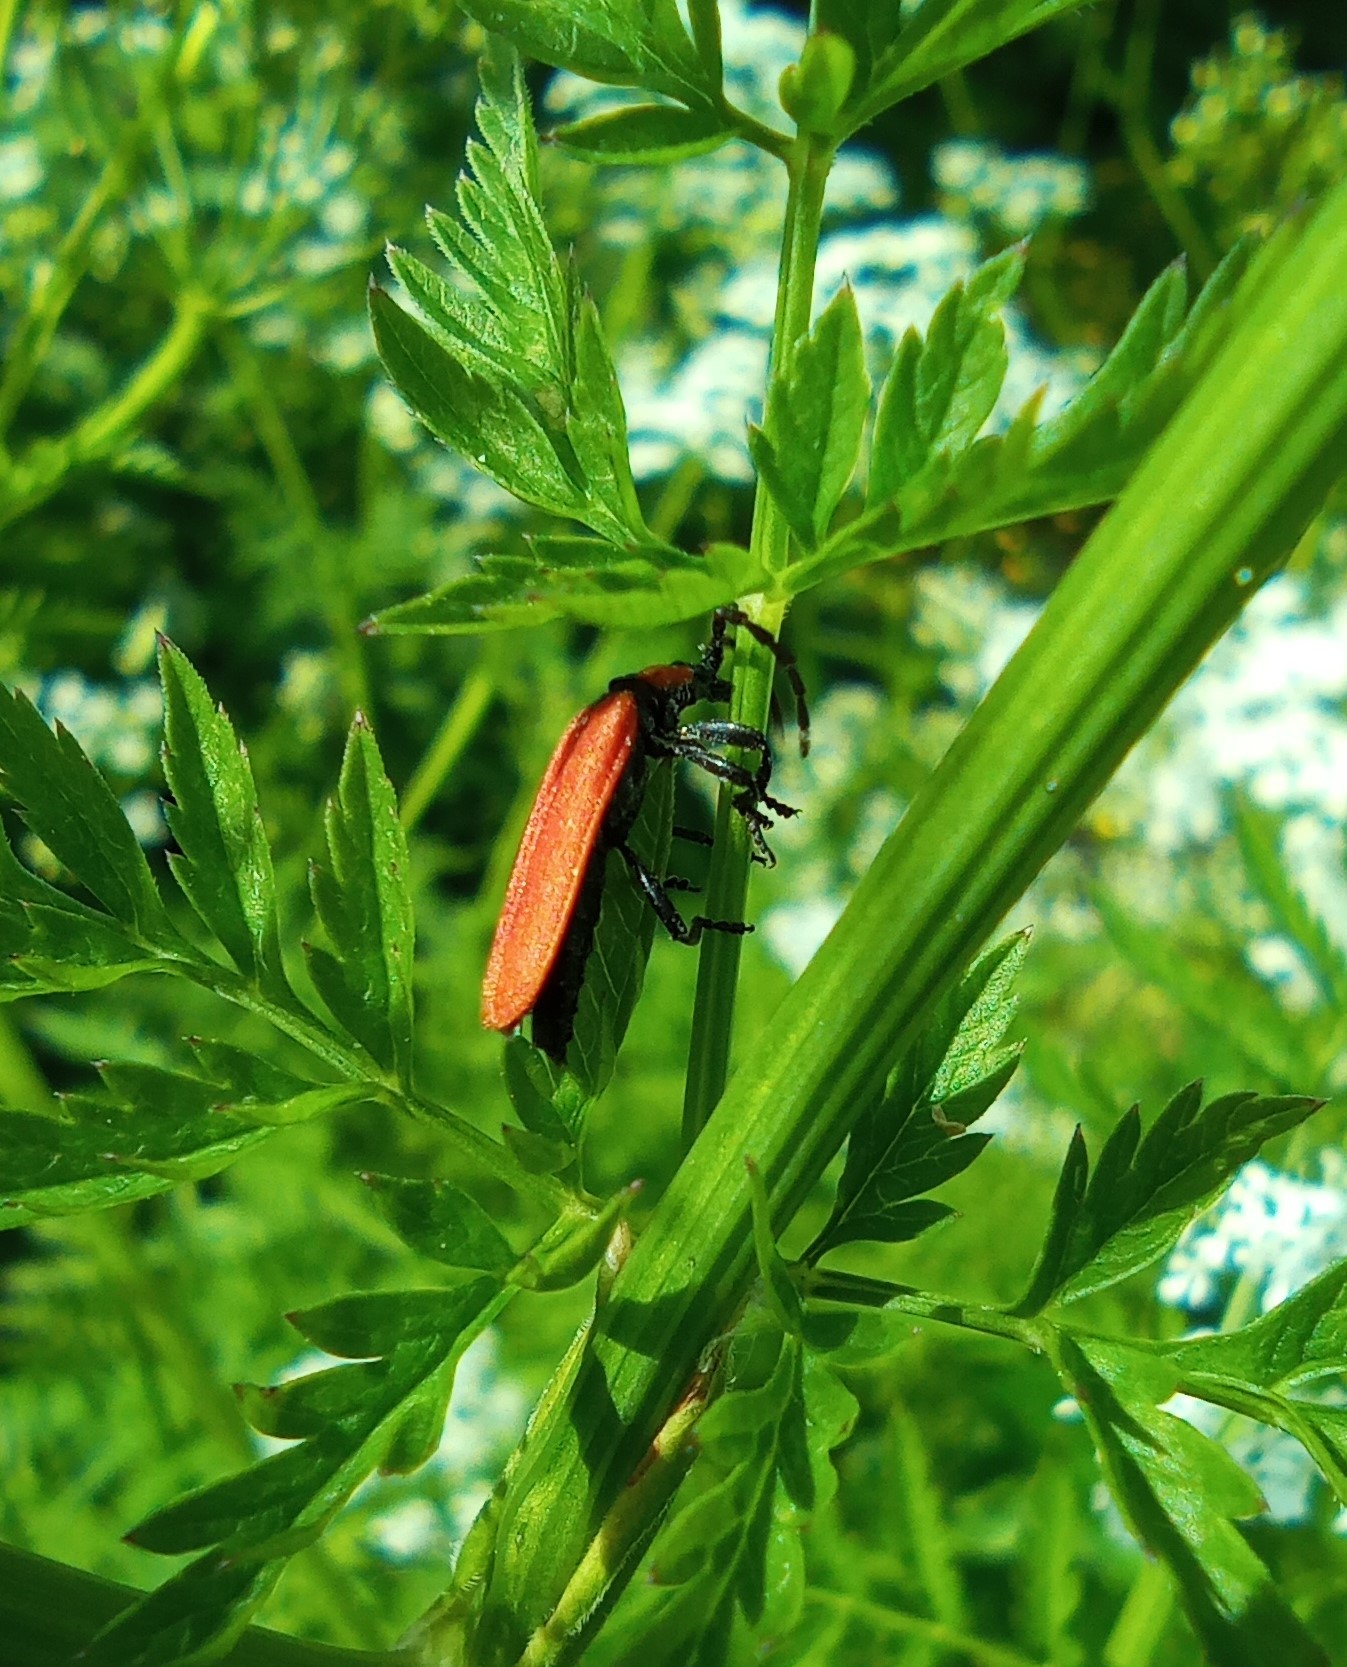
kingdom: Animalia
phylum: Arthropoda
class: Insecta
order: Coleoptera
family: Lycidae
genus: Lygistopterus
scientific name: Lygistopterus sanguineus
